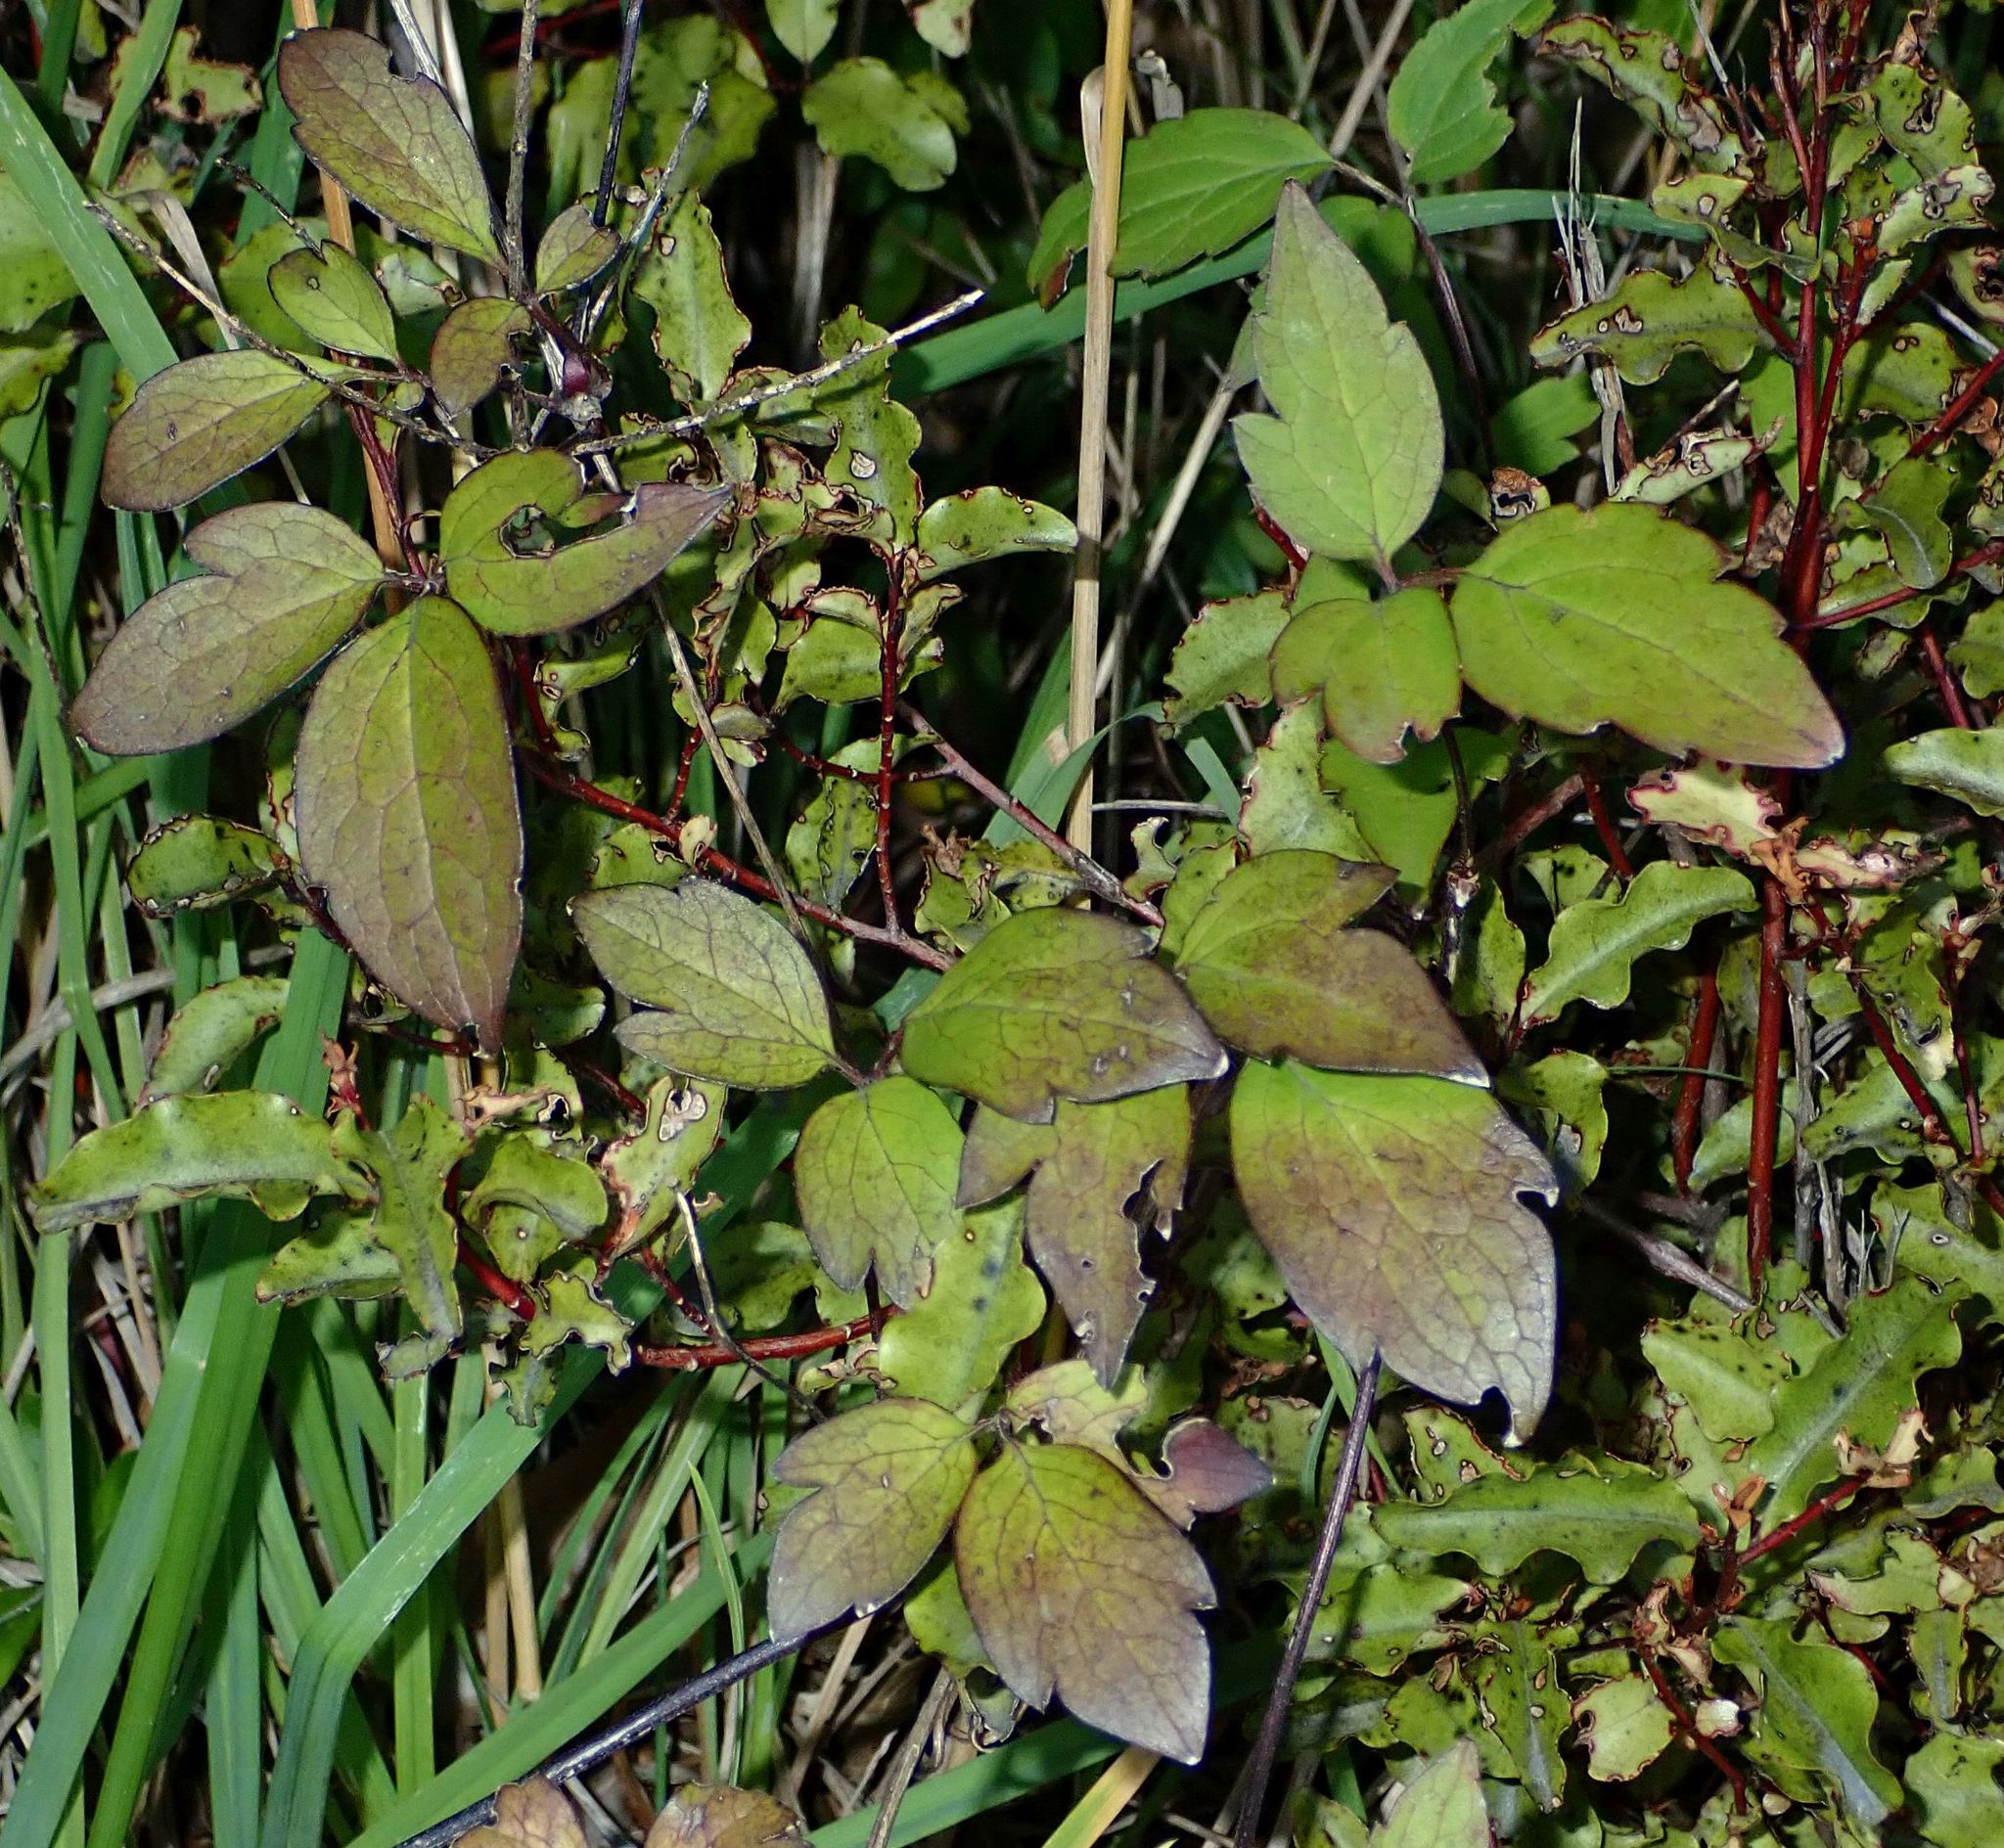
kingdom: Plantae
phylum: Tracheophyta
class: Magnoliopsida
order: Ranunculales
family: Ranunculaceae
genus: Clematis
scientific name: Clematis montana
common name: Himalayan clematis
